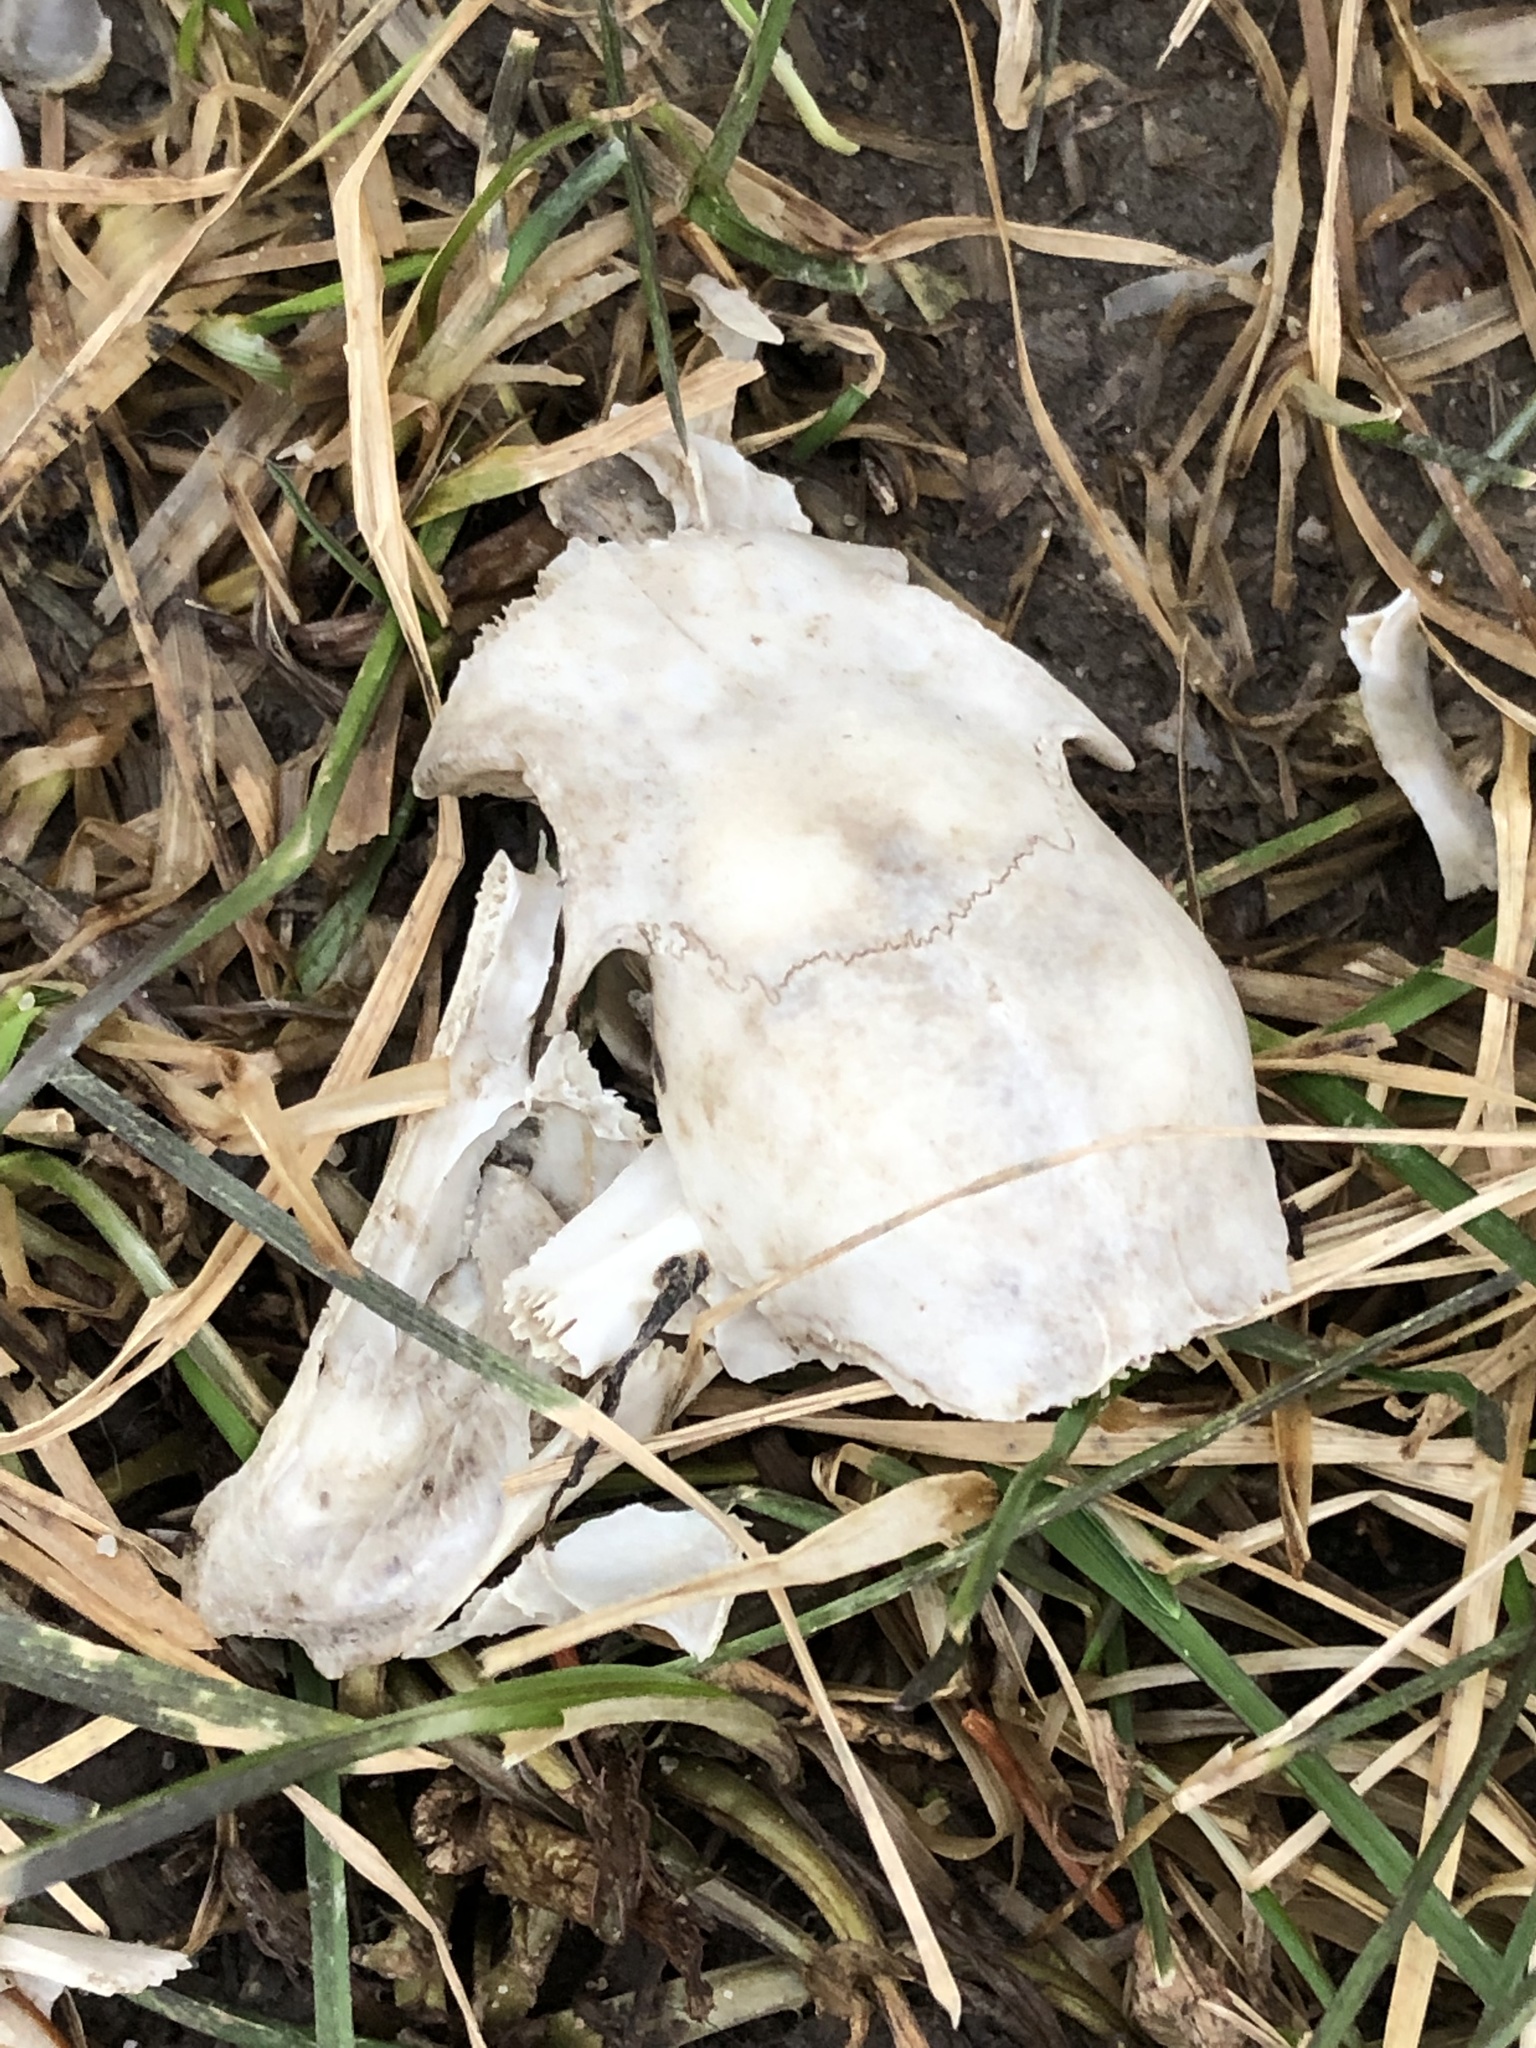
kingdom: Animalia
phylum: Chordata
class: Mammalia
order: Rodentia
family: Sciuridae
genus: Sciurus
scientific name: Sciurus carolinensis
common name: Eastern gray squirrel
